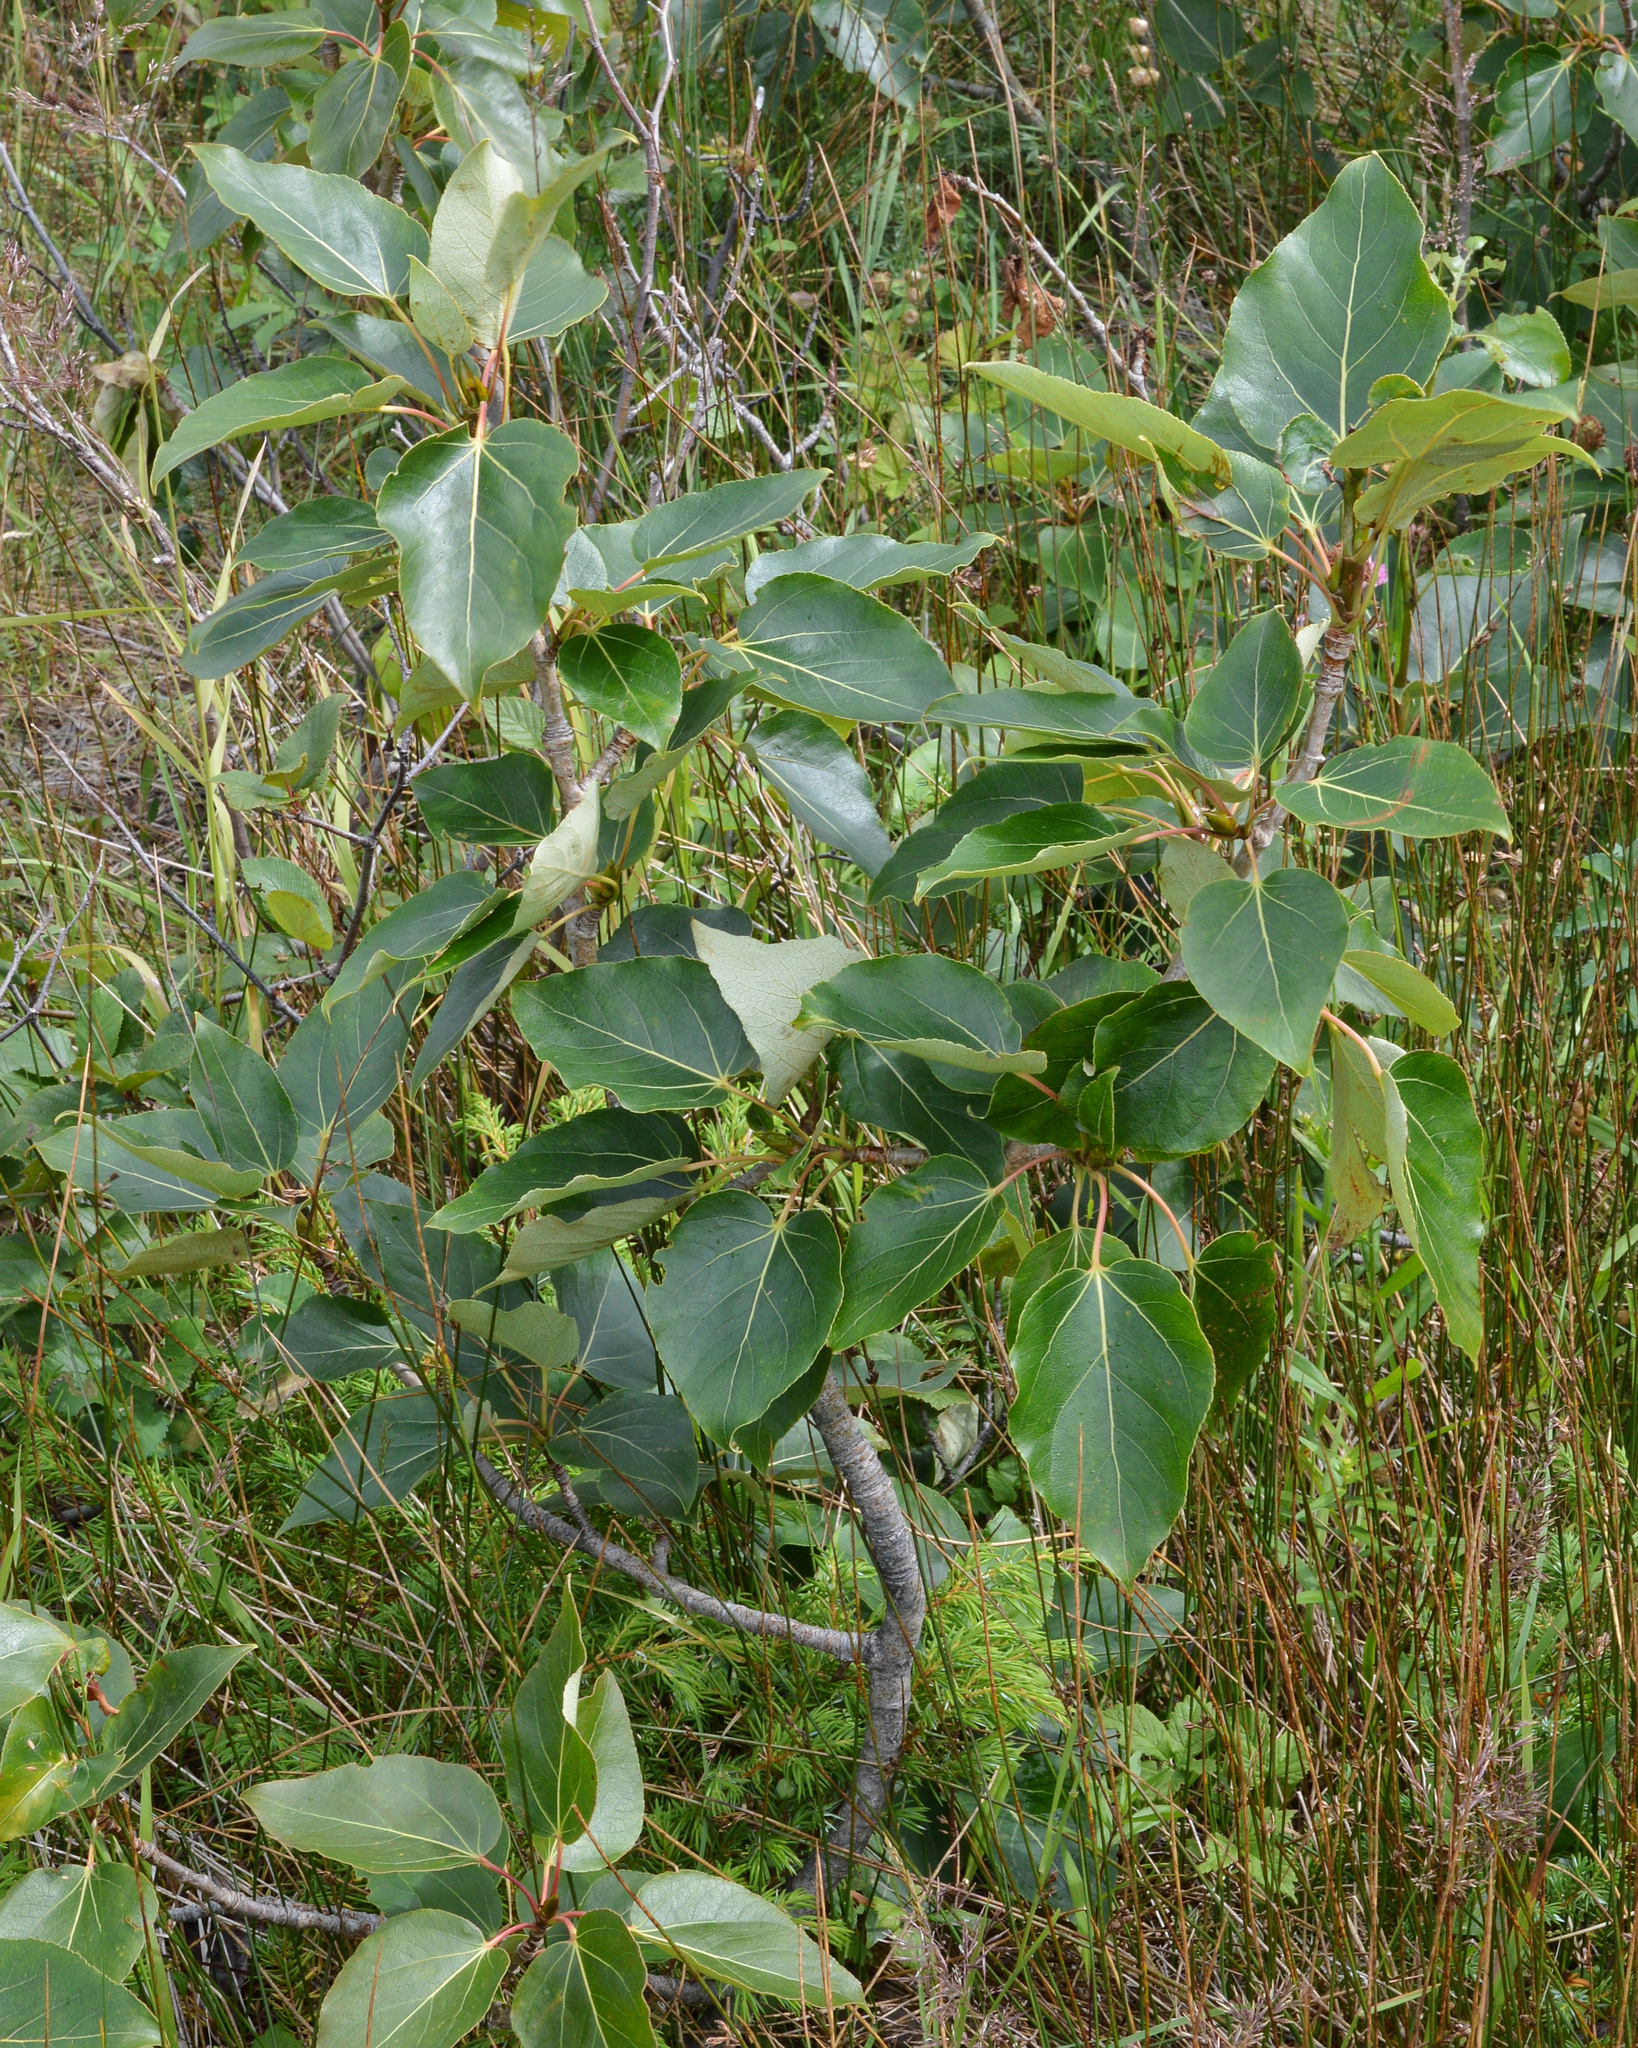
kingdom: Plantae
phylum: Tracheophyta
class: Magnoliopsida
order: Malpighiales
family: Salicaceae
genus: Populus
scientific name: Populus balsamifera
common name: Balsam poplar
